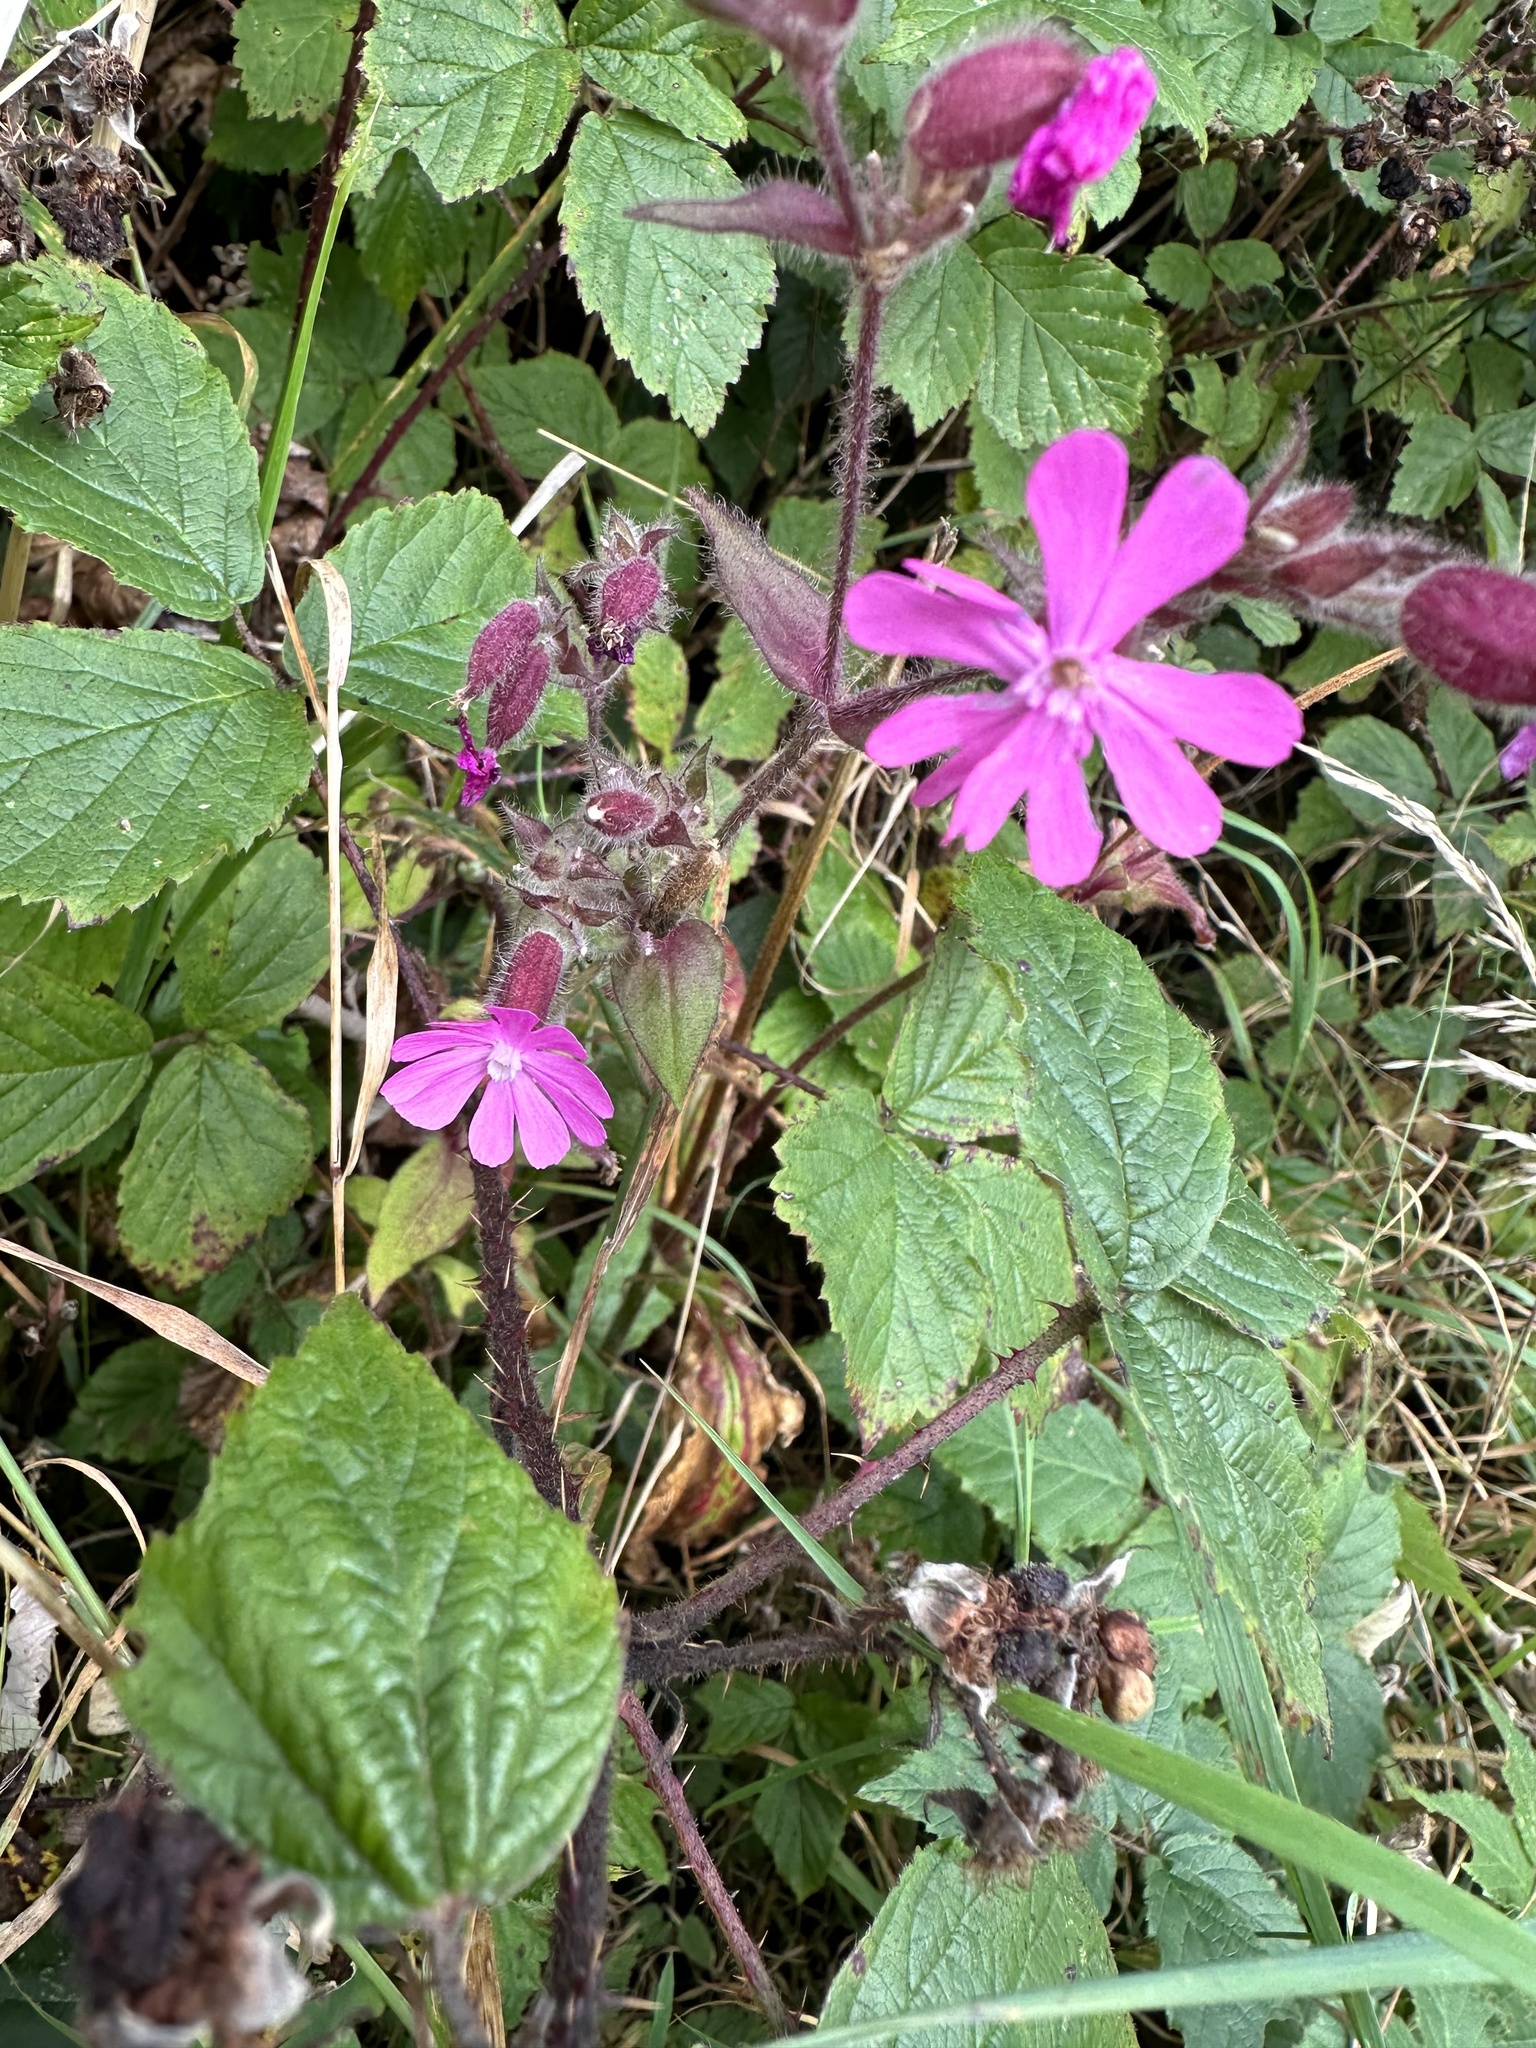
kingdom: Plantae
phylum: Tracheophyta
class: Magnoliopsida
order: Caryophyllales
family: Caryophyllaceae
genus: Silene
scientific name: Silene dioica
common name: Red campion
